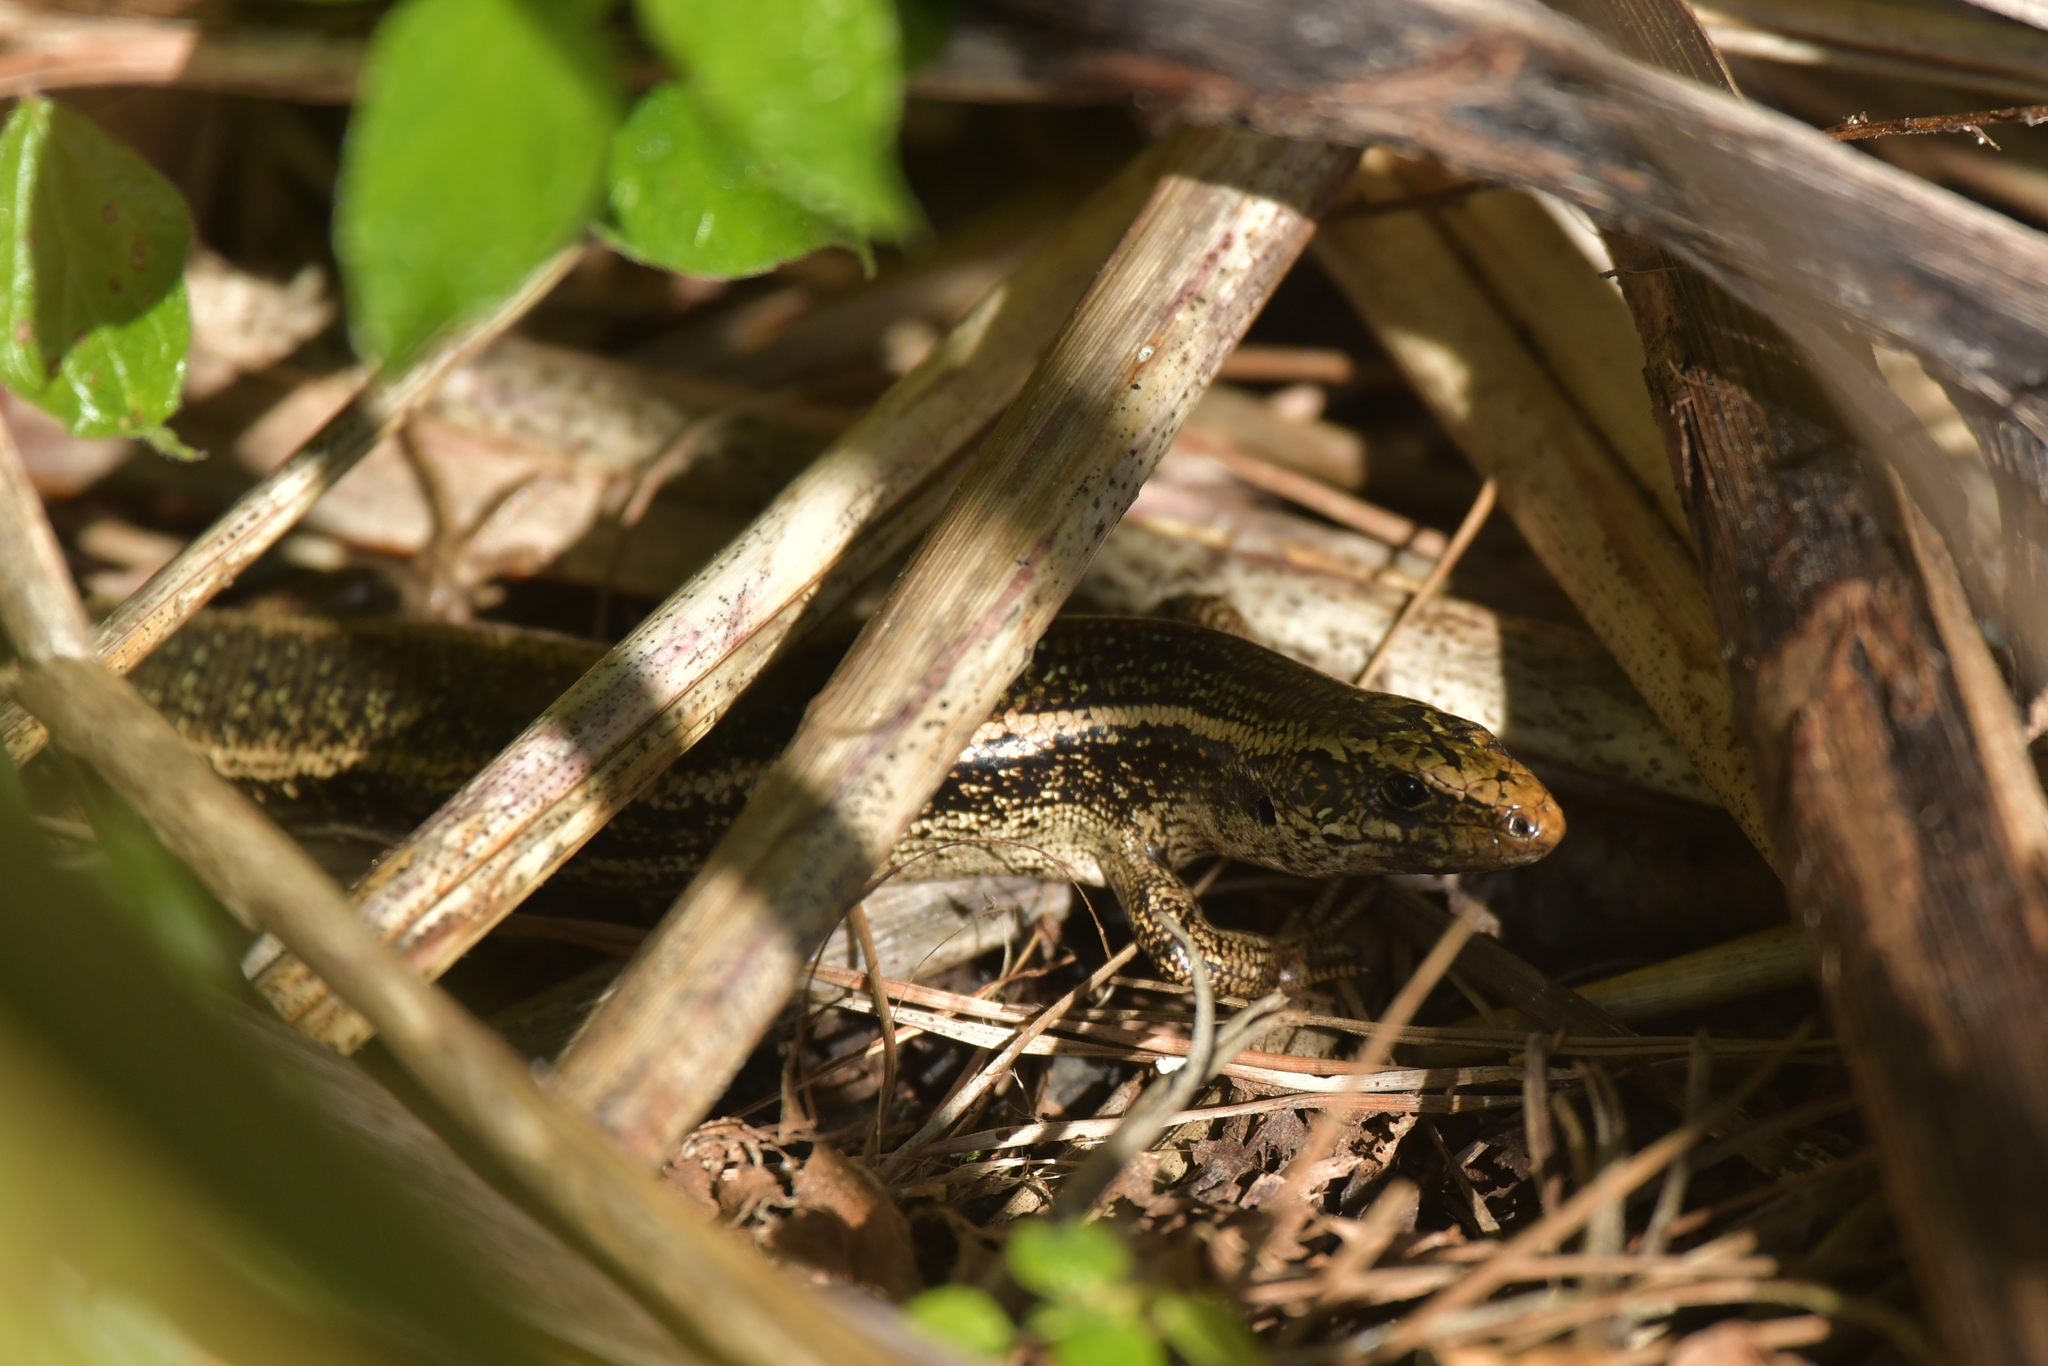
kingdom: Animalia
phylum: Chordata
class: Squamata
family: Scincidae
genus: Oligosoma
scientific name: Oligosoma kokowai
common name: Northern spotted skink
